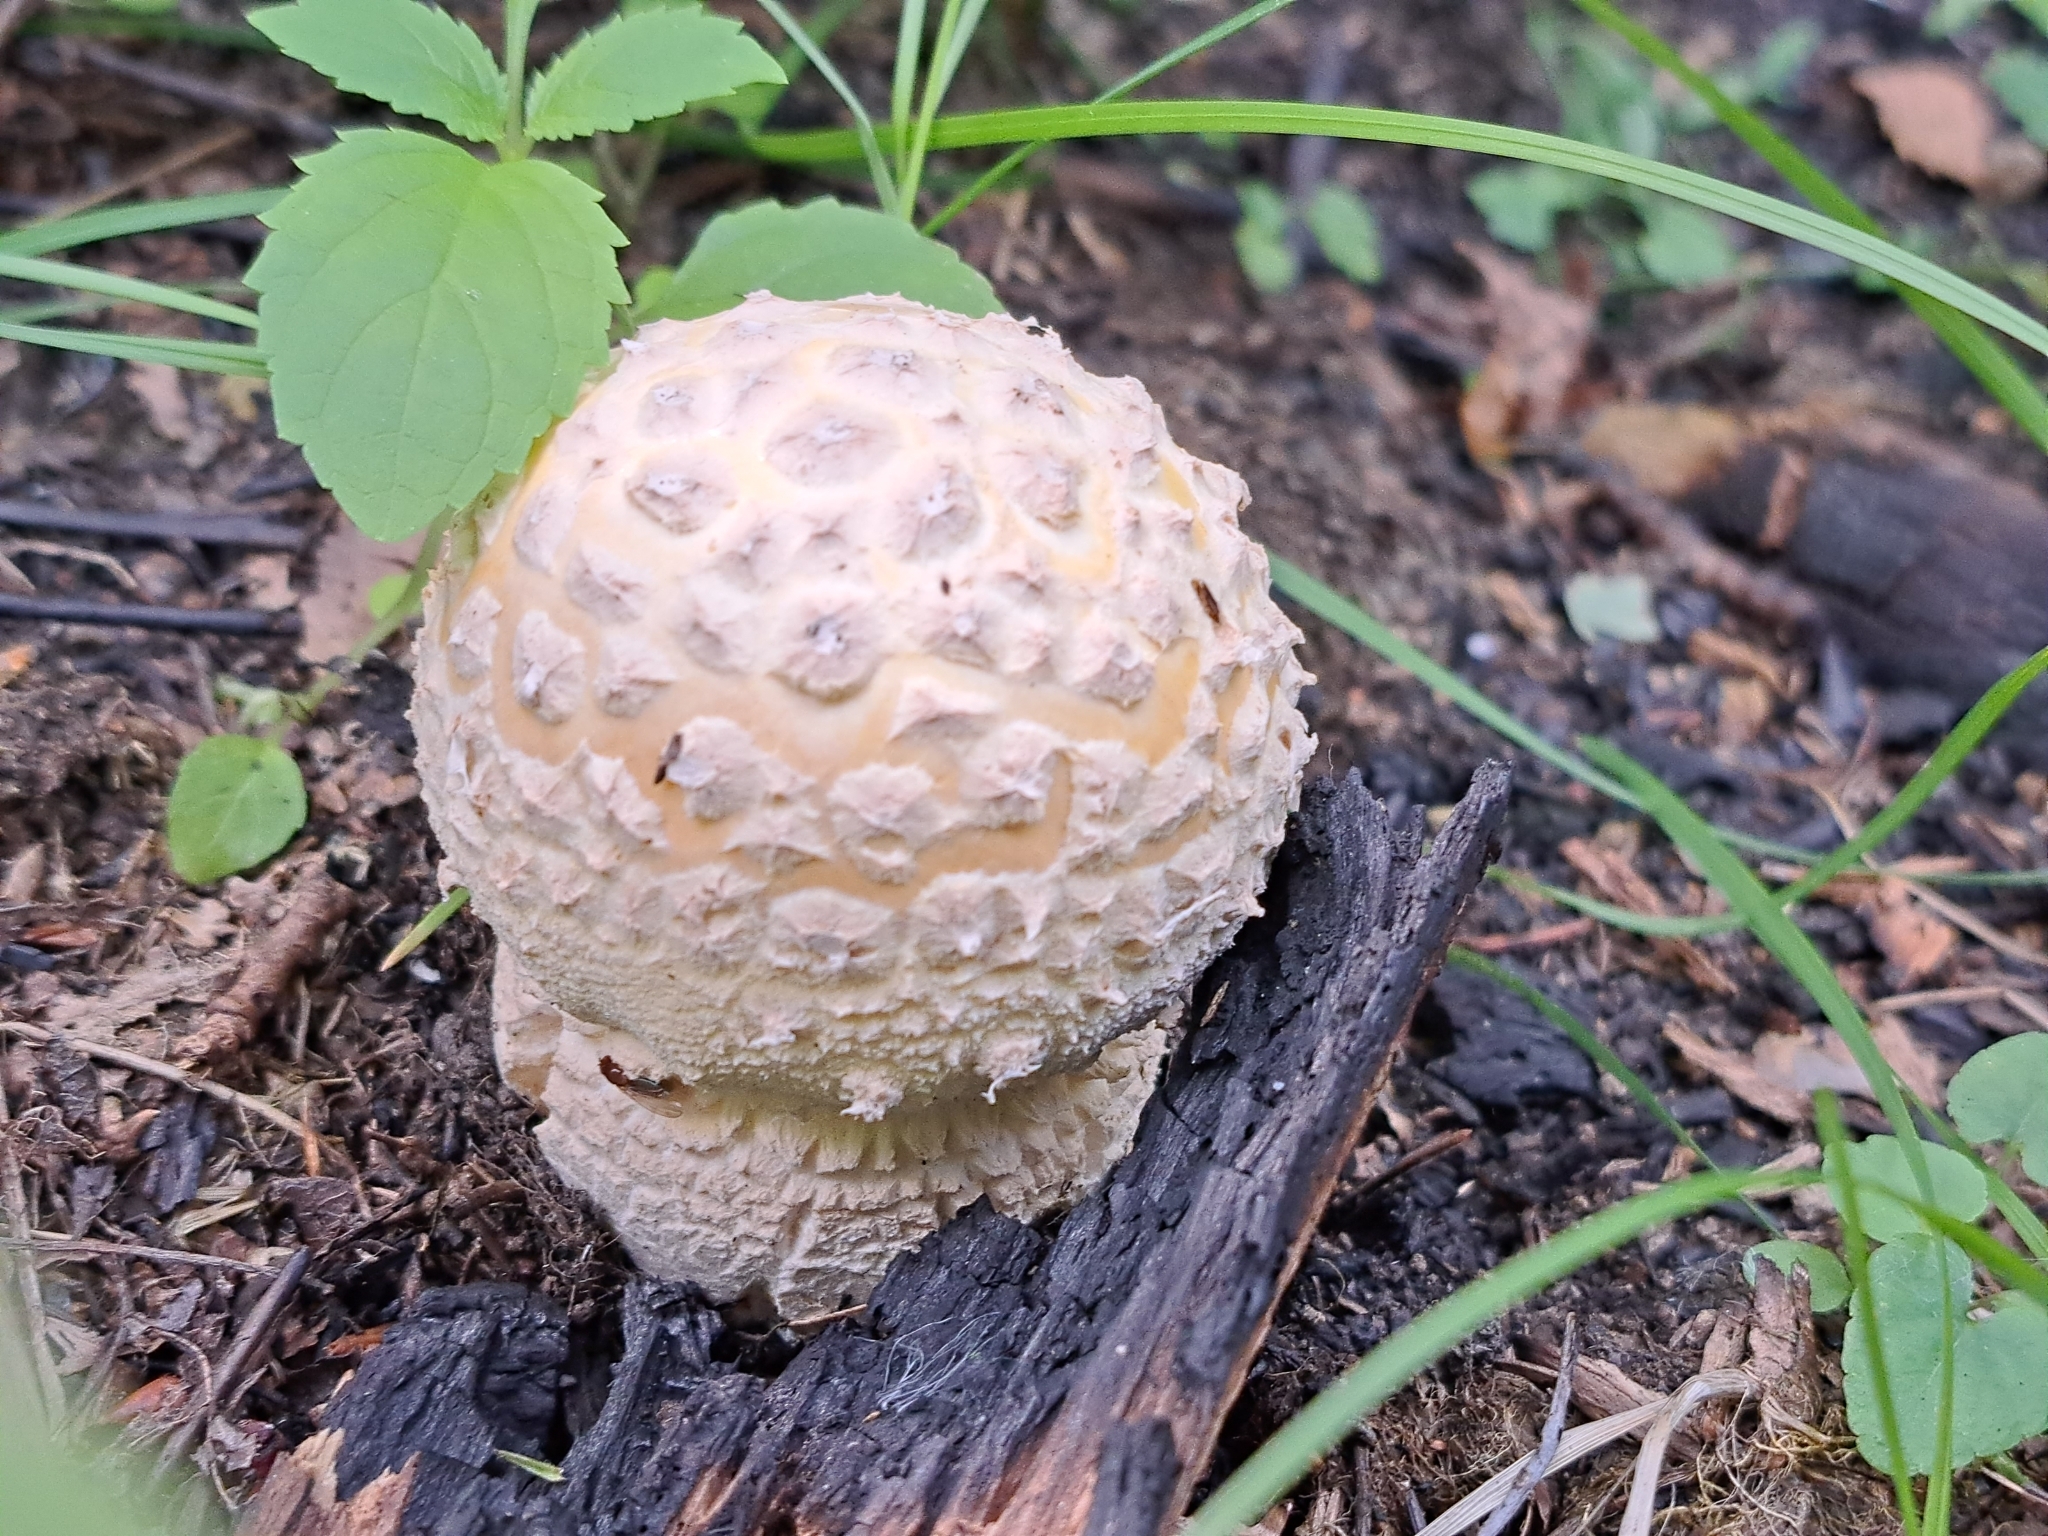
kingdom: Fungi
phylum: Basidiomycota
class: Agaricomycetes
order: Agaricales
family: Amanitaceae
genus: Amanita
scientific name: Amanita rubescens
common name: Blusher
